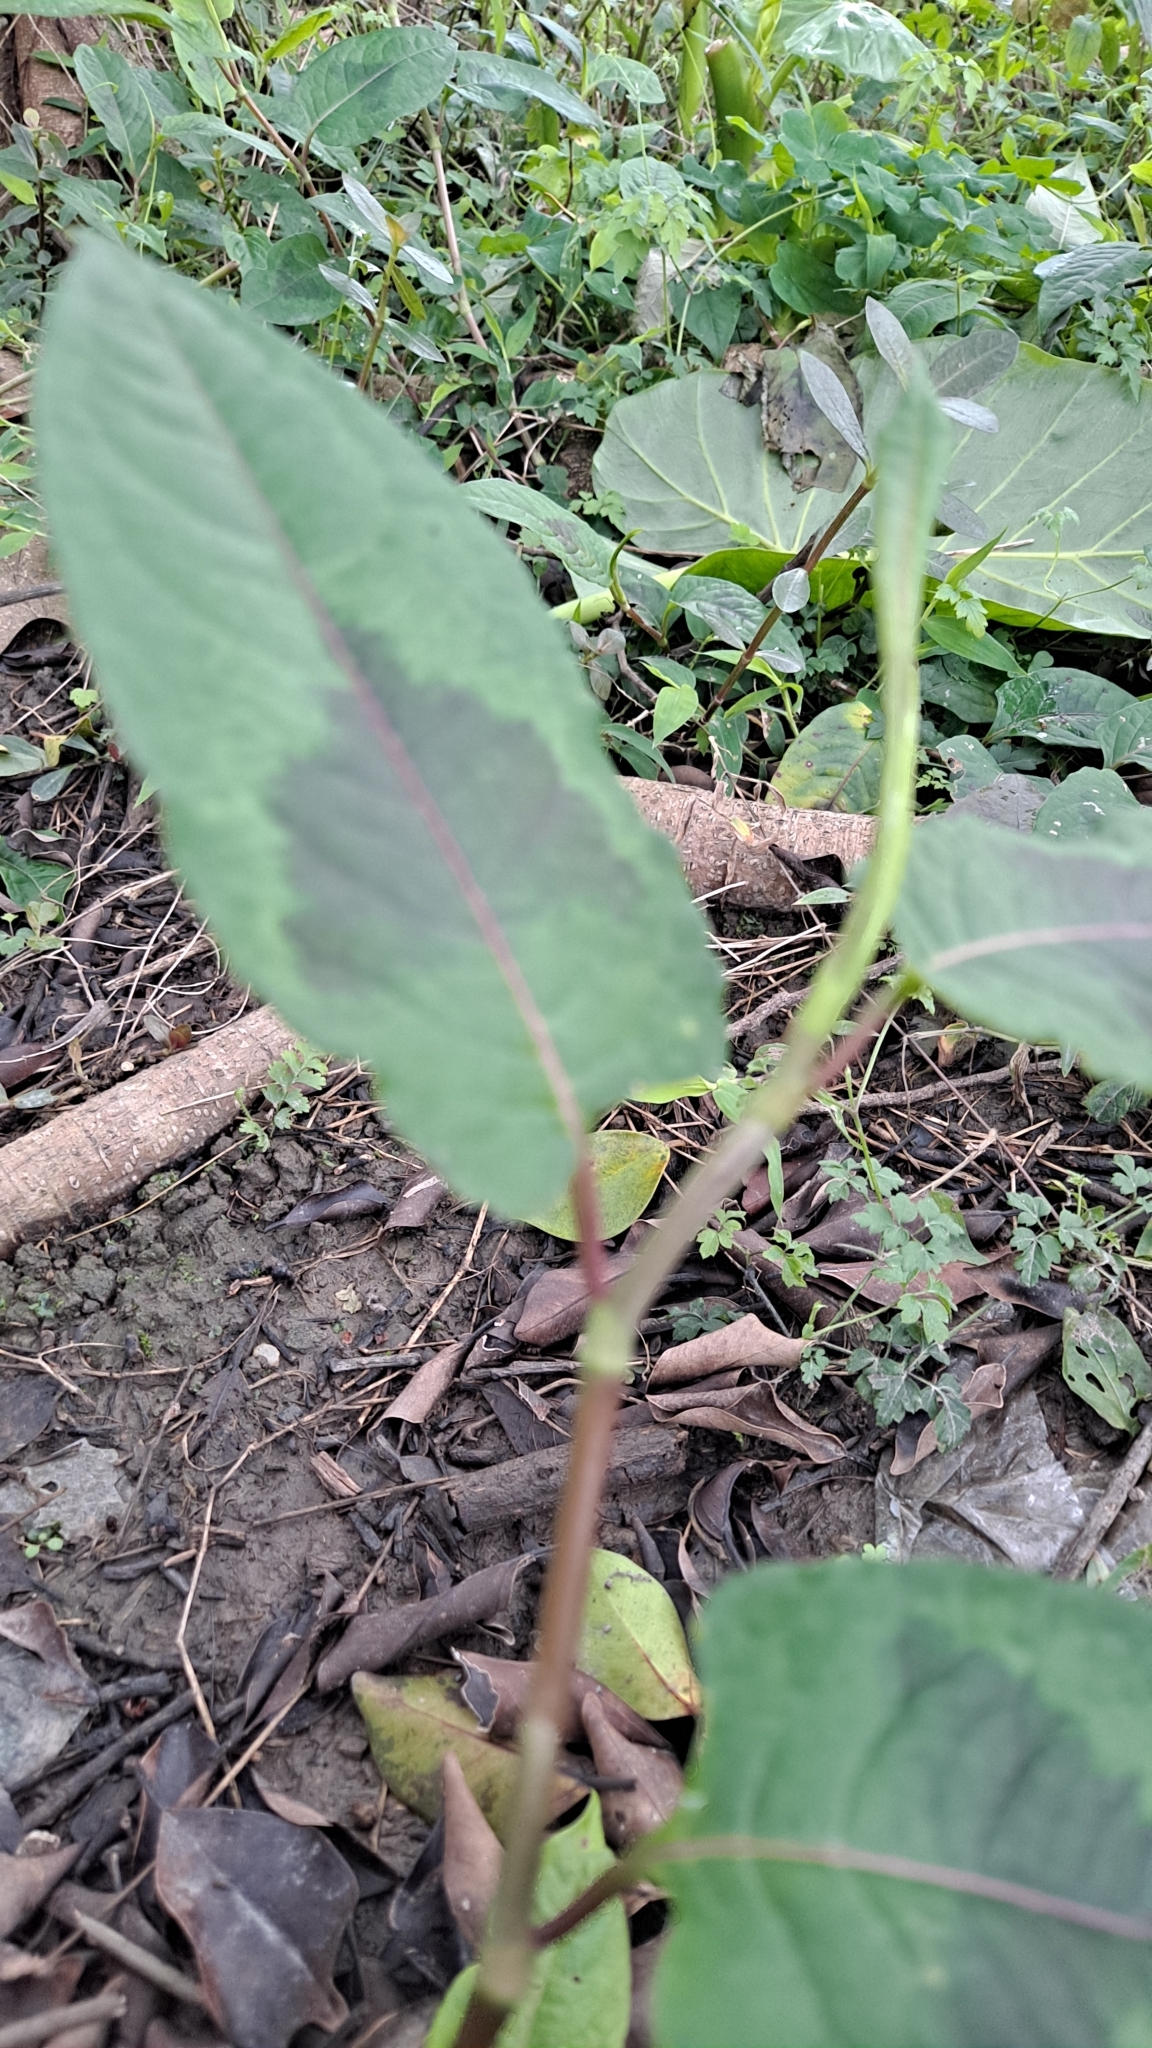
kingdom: Plantae
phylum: Tracheophyta
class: Magnoliopsida
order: Caryophyllales
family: Polygonaceae
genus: Persicaria
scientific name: Persicaria chinensis
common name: Chinese knotweed
